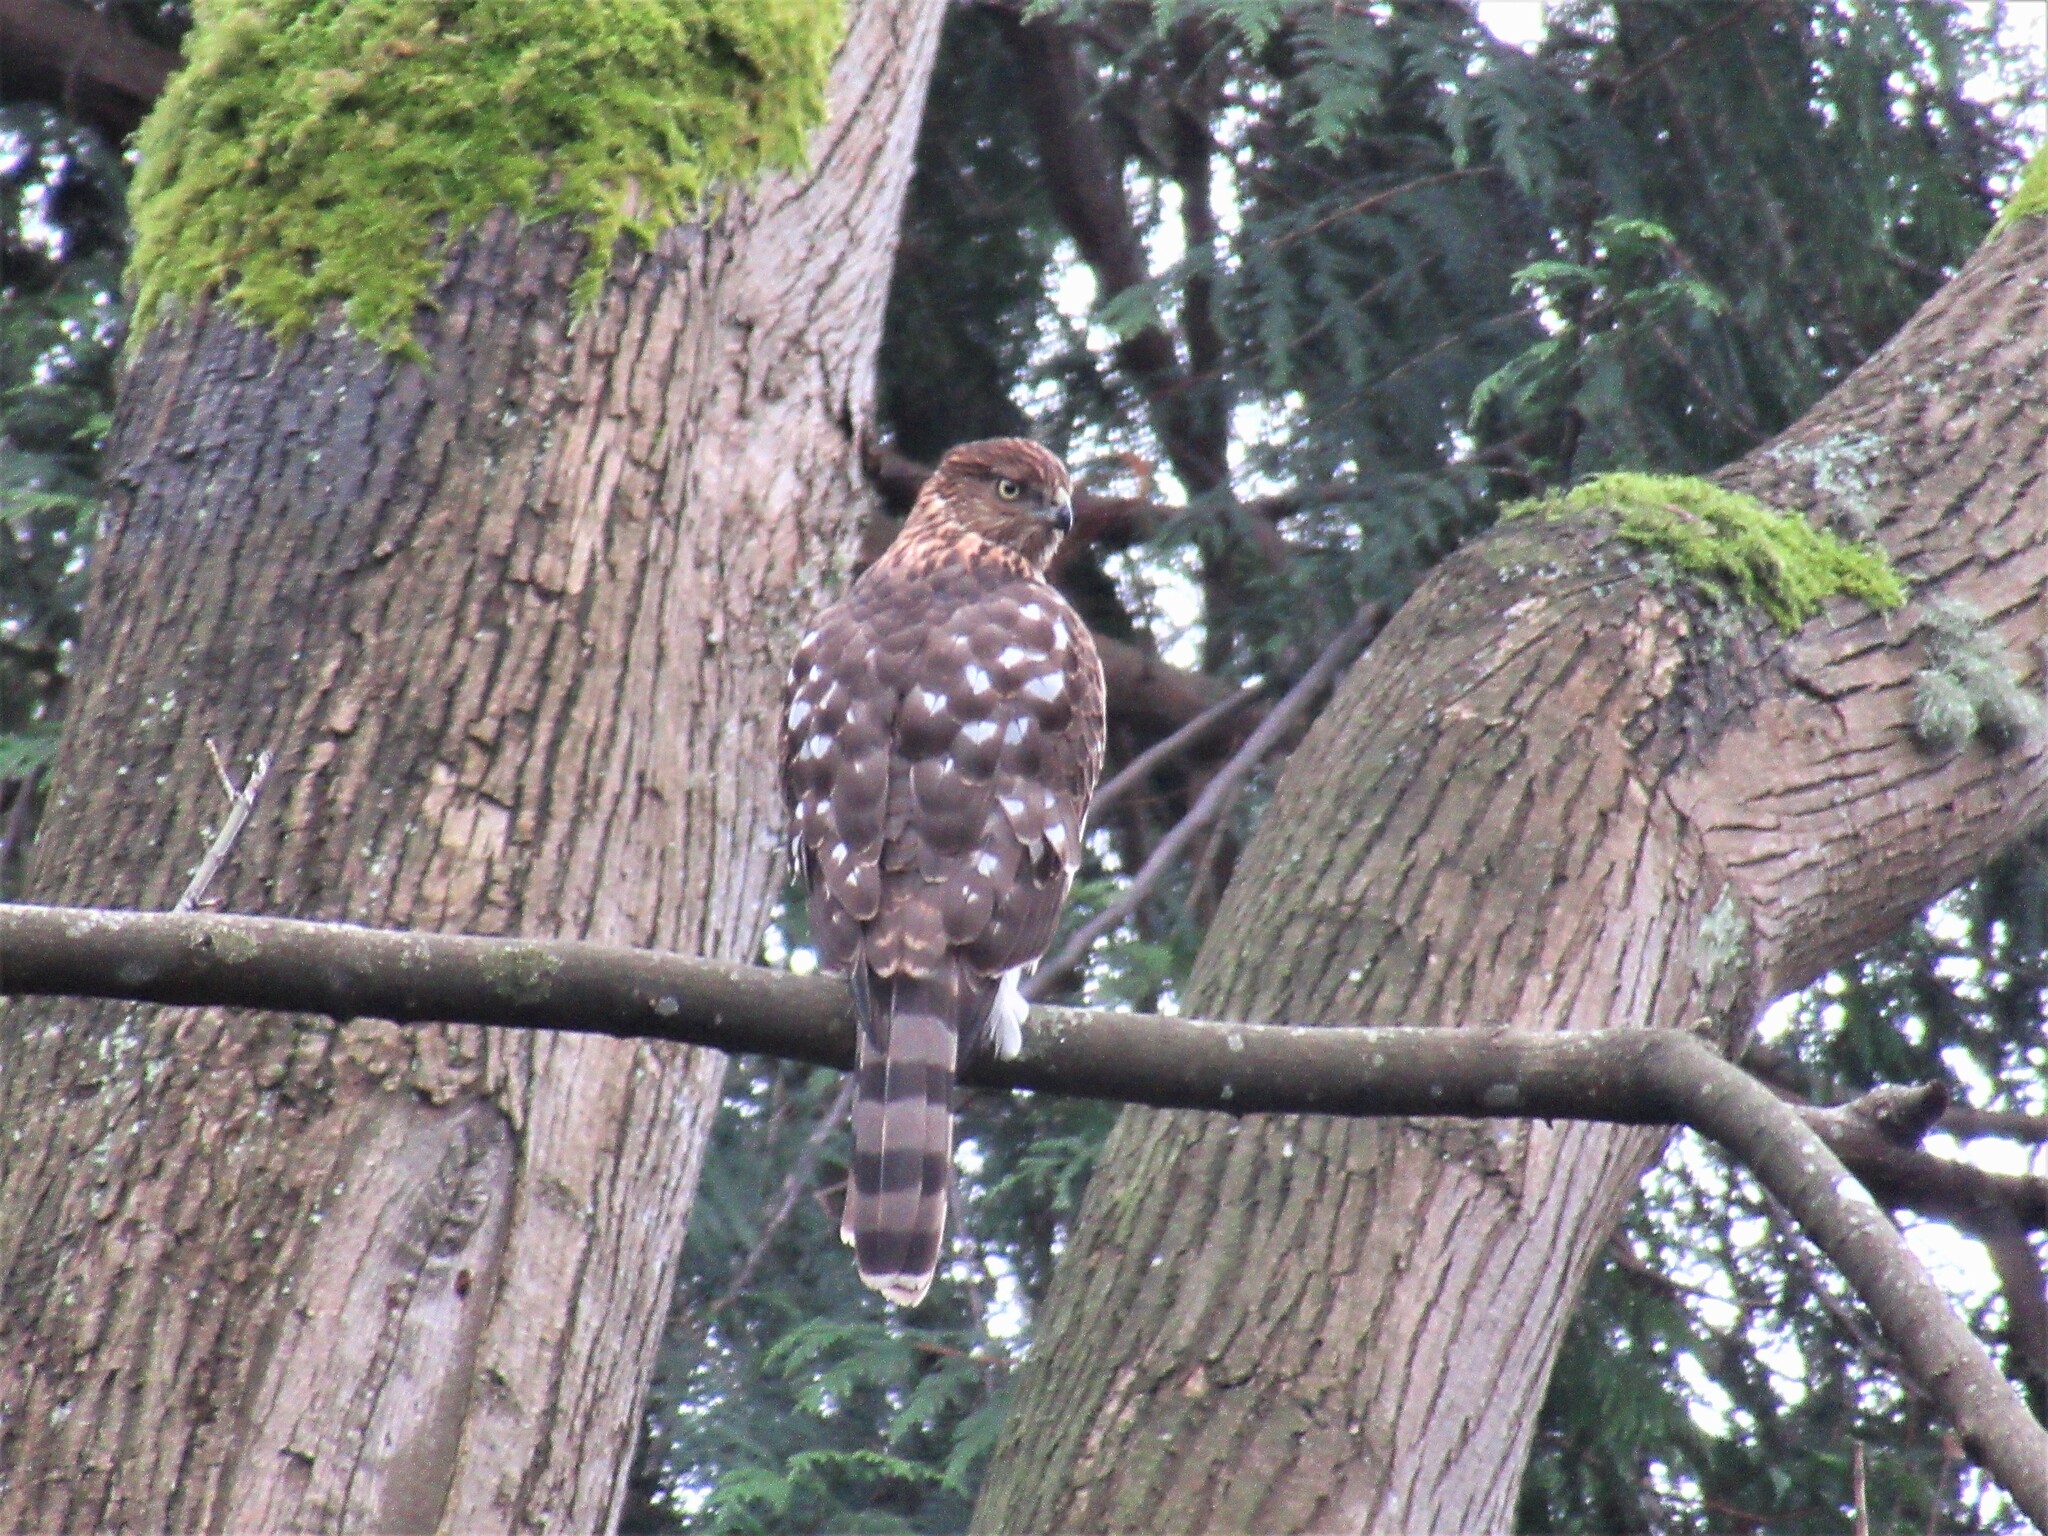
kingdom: Animalia
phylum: Chordata
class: Aves
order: Accipitriformes
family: Accipitridae
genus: Accipiter
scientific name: Accipiter cooperii
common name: Cooper's hawk
